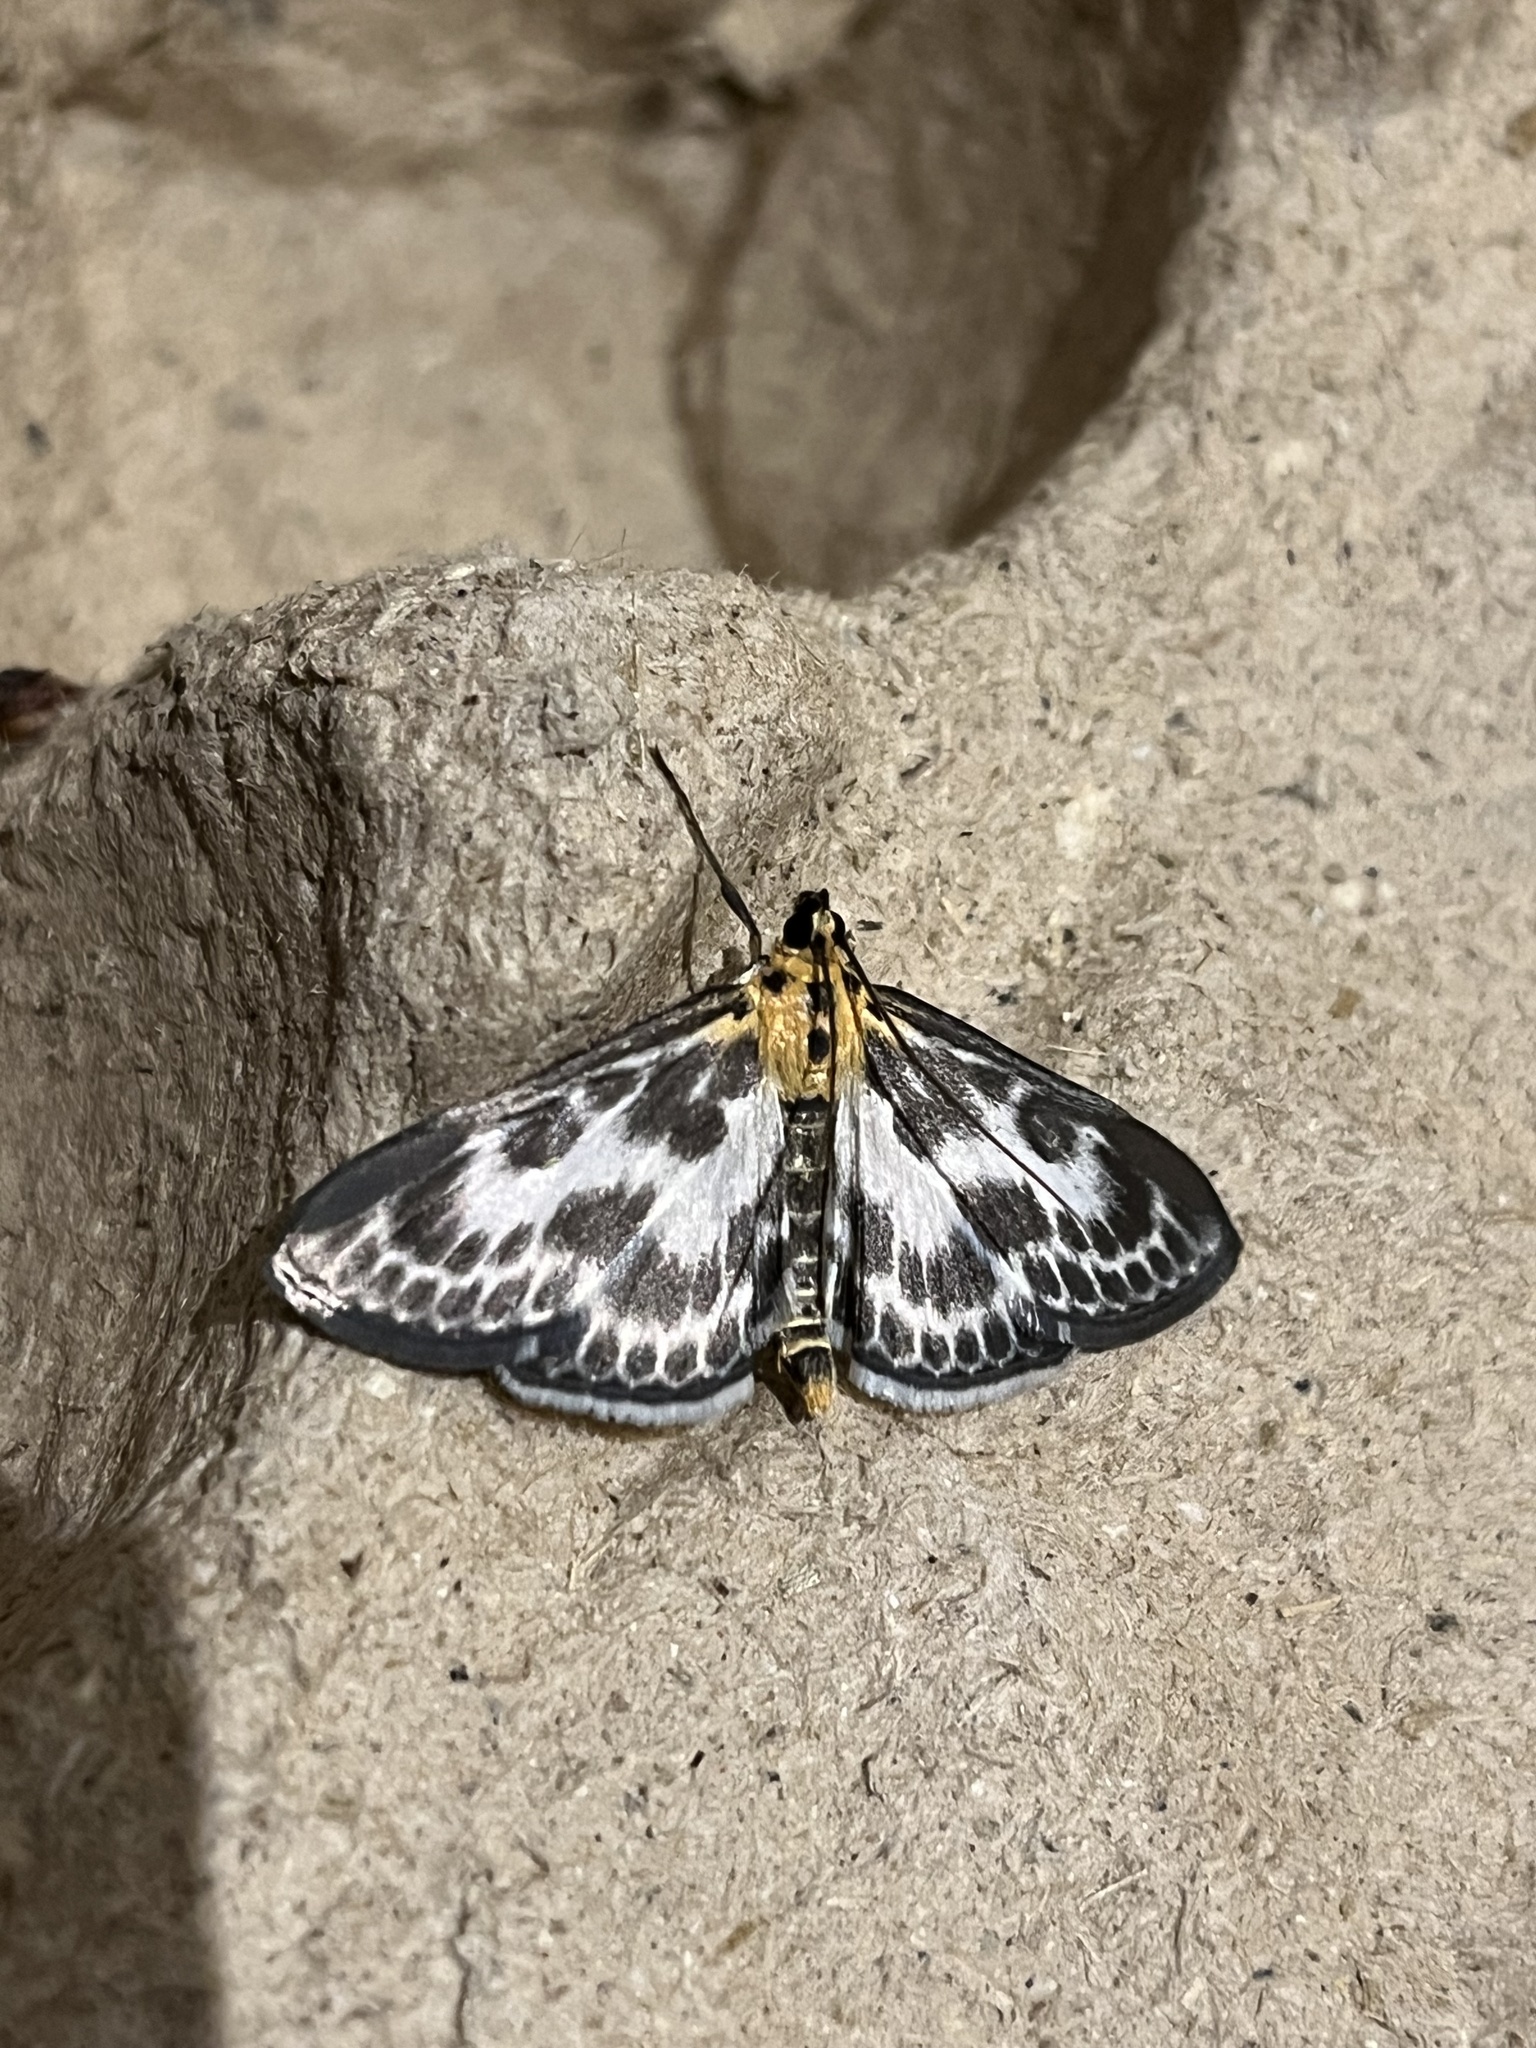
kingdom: Animalia
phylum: Arthropoda
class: Insecta
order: Lepidoptera
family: Crambidae
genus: Anania
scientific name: Anania hortulata
